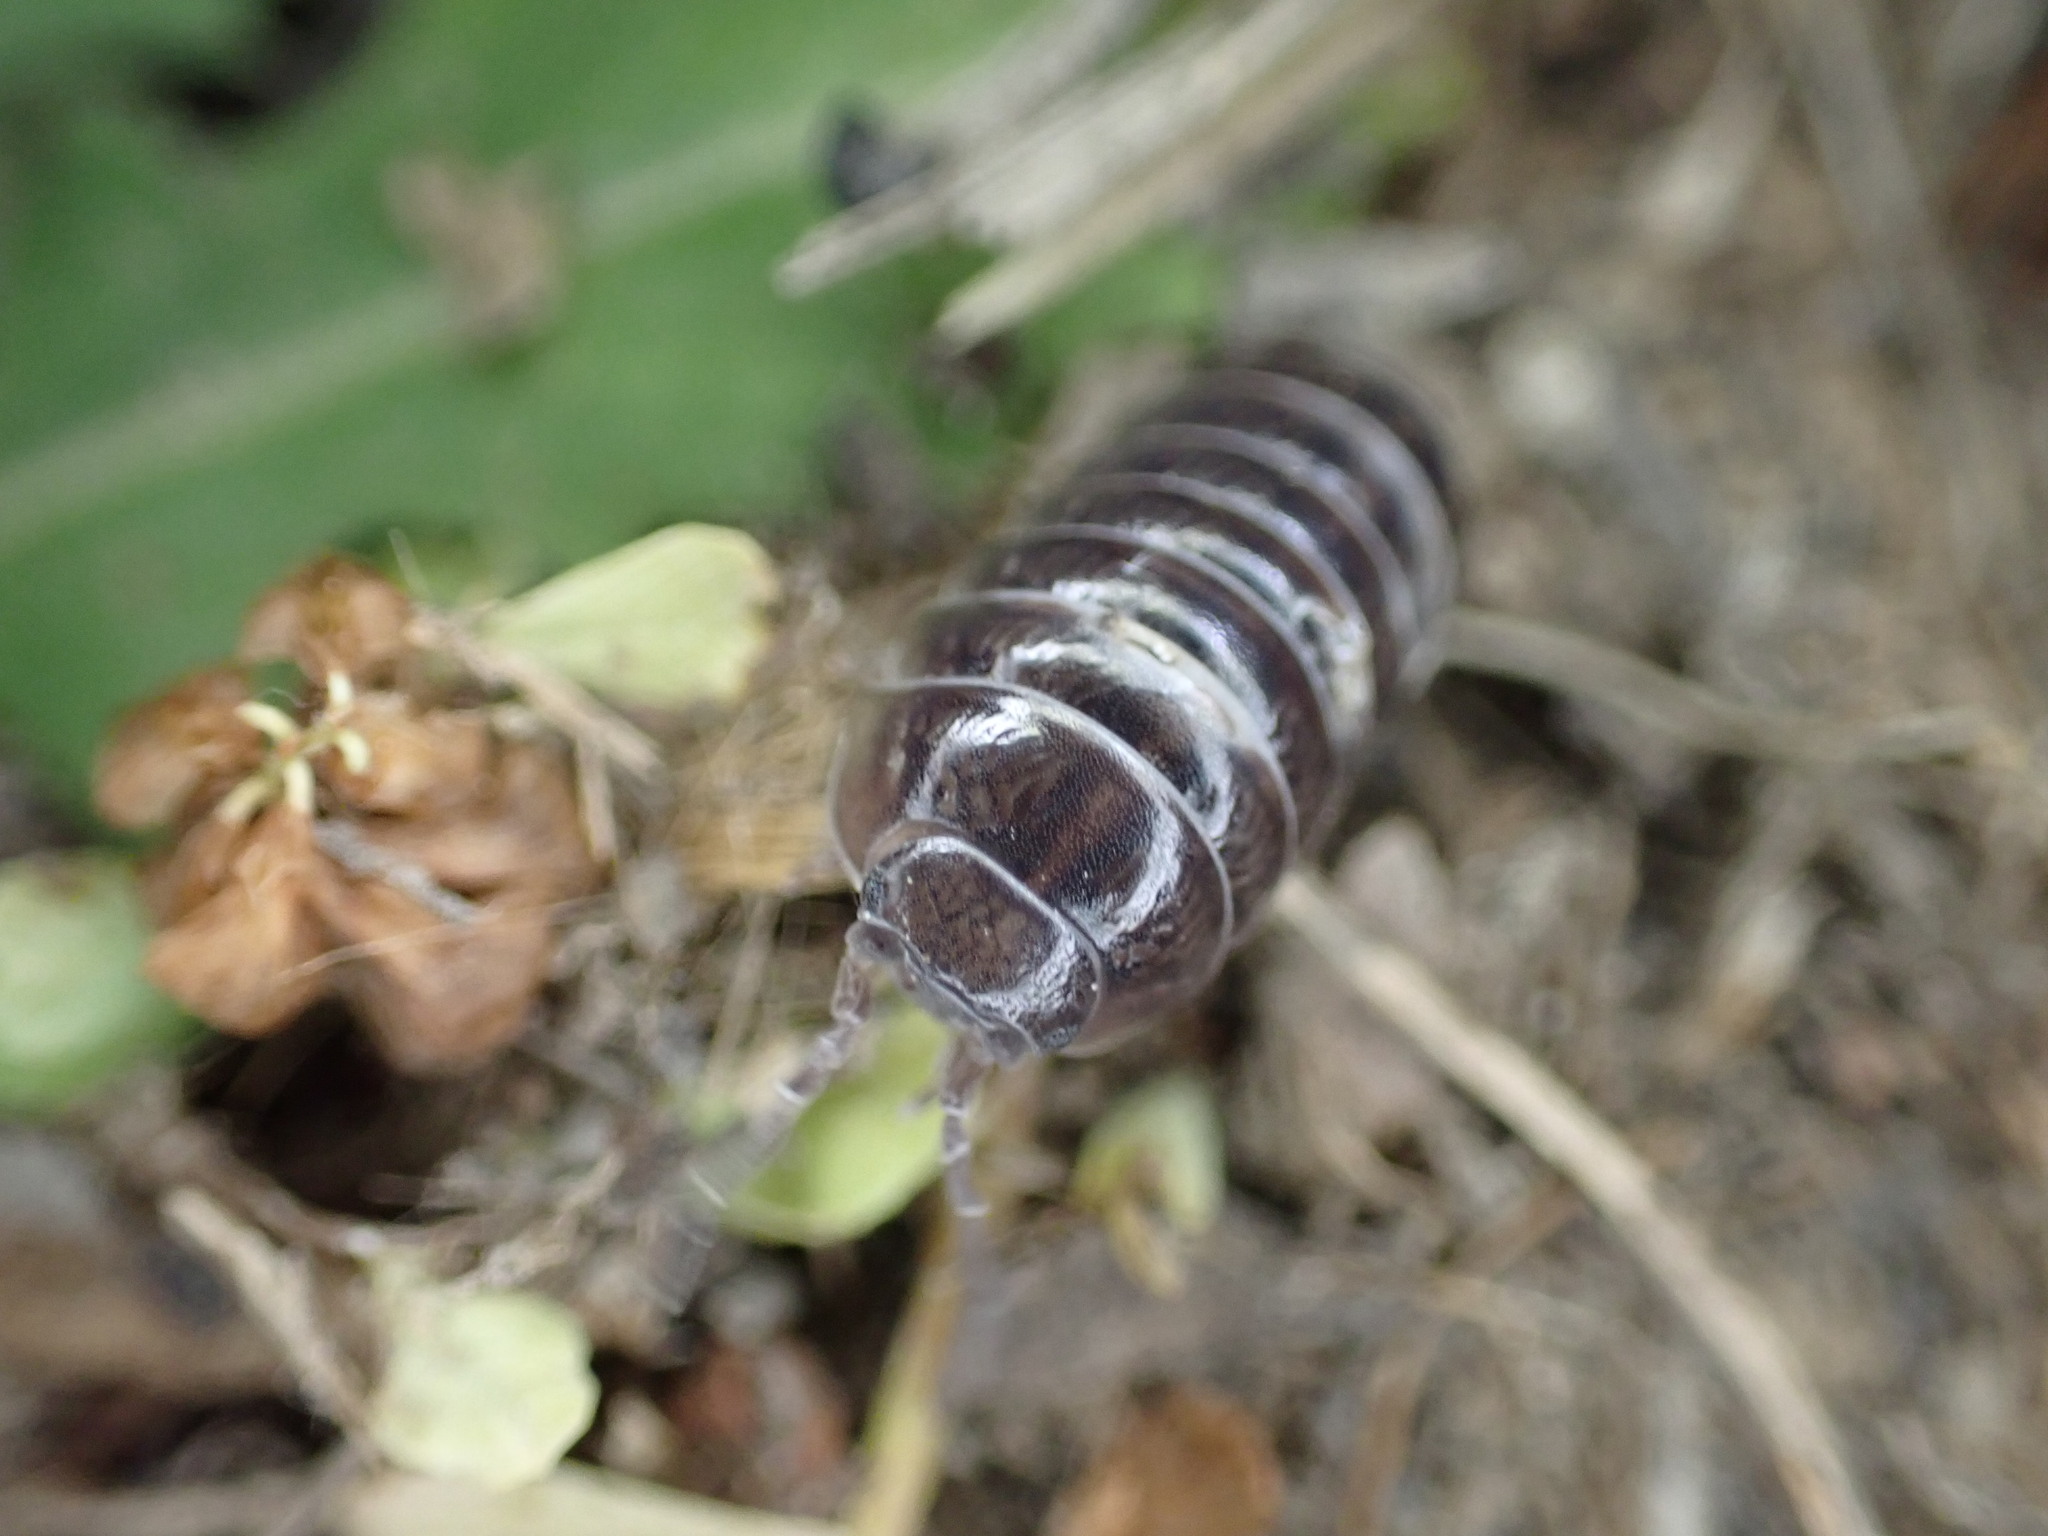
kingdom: Animalia
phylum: Arthropoda
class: Malacostraca
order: Isopoda
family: Armadillidiidae
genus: Armadillidium
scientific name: Armadillidium vulgare
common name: Common pill woodlouse
